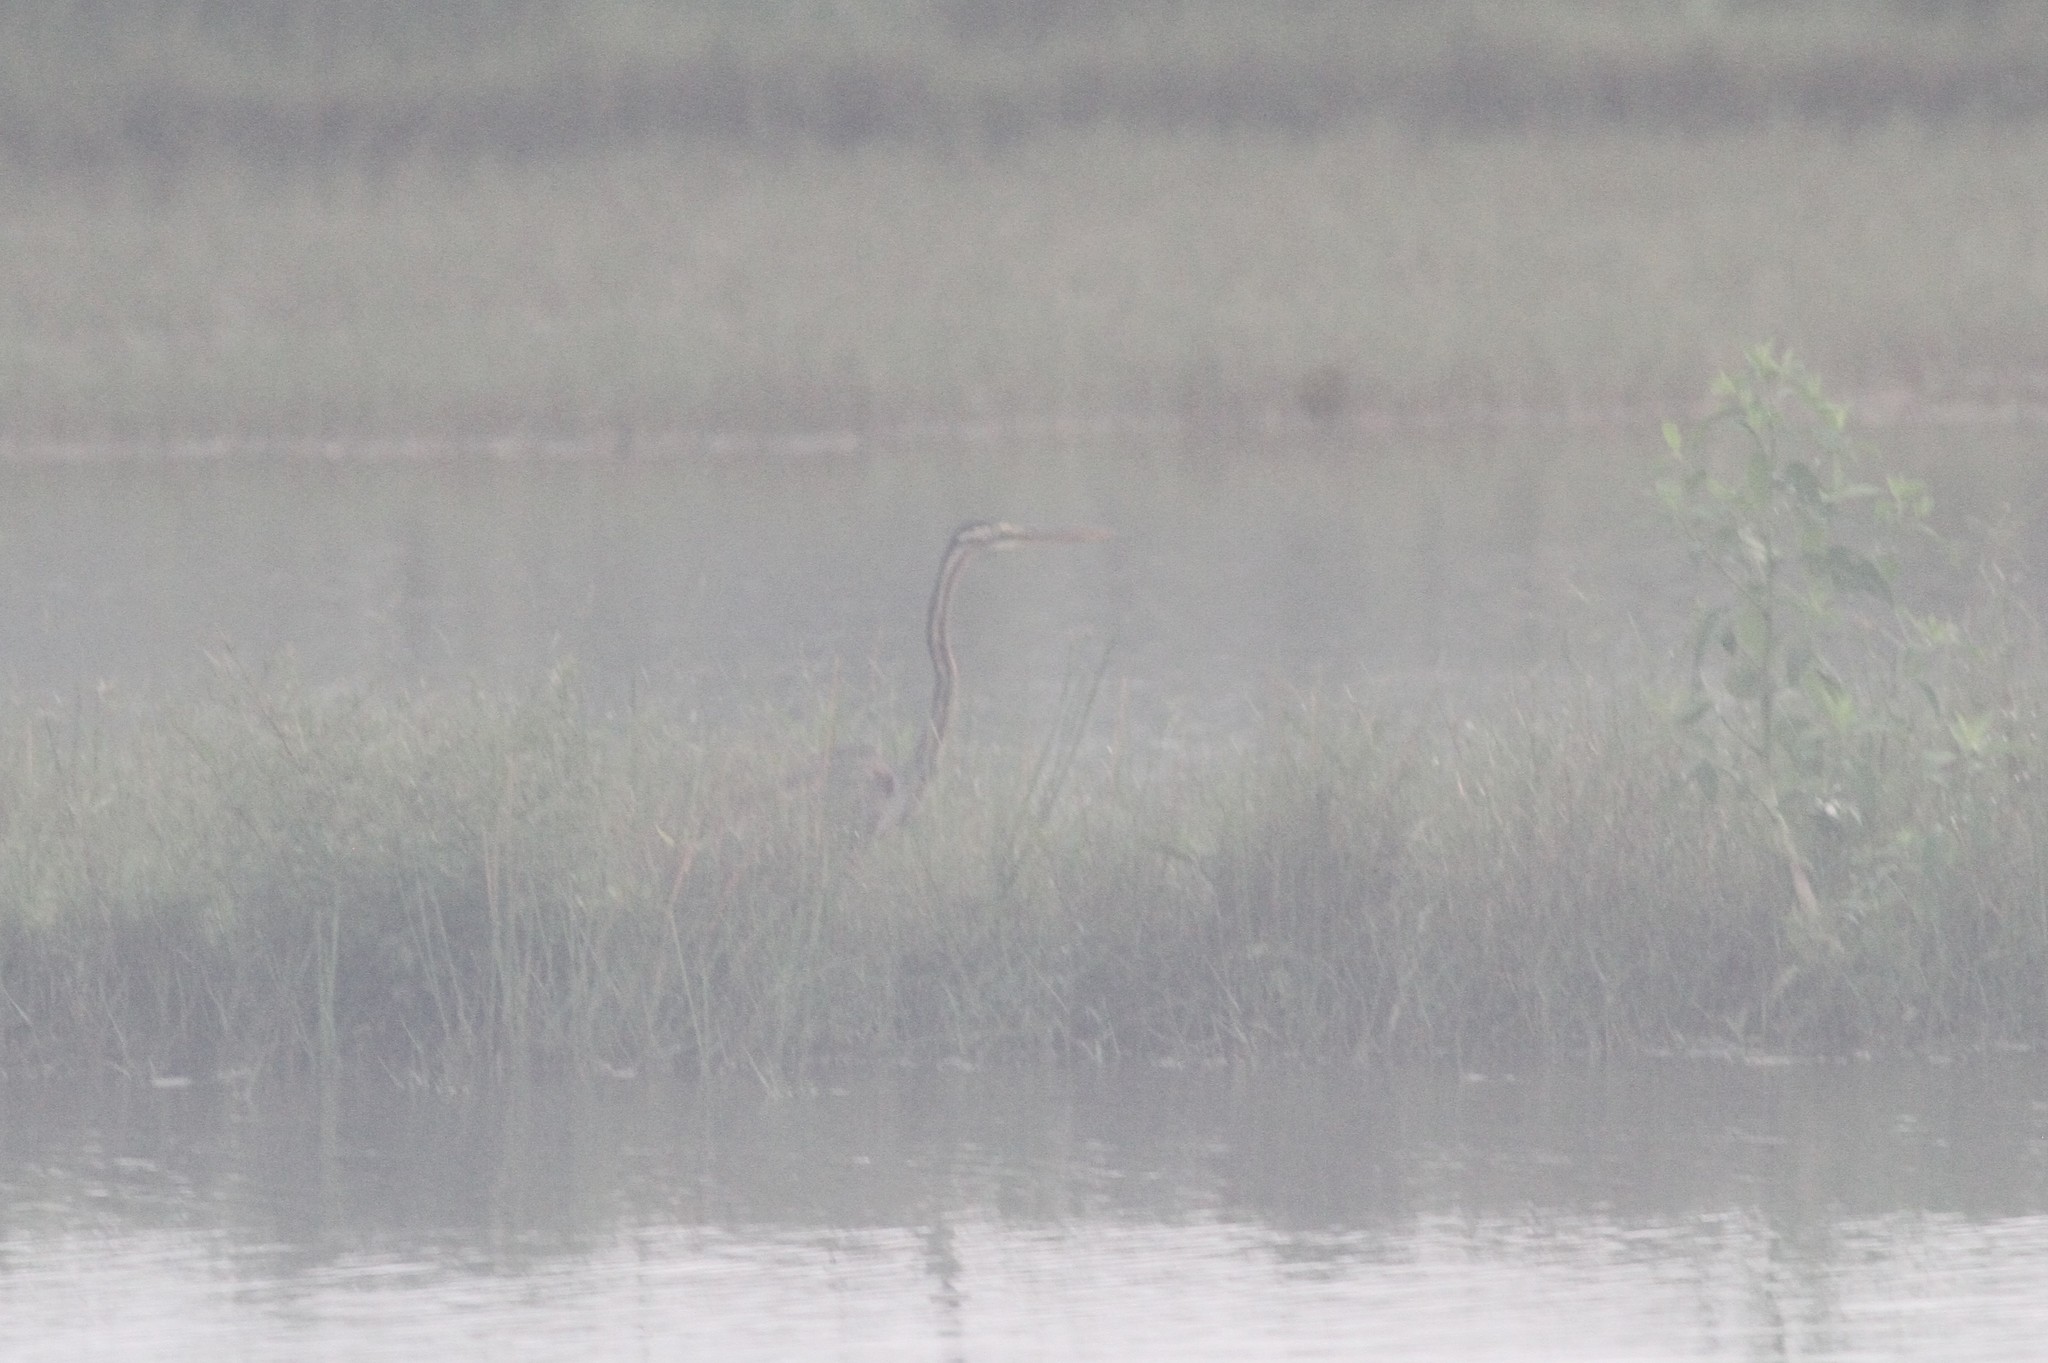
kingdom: Animalia
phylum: Chordata
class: Aves
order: Pelecaniformes
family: Ardeidae
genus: Ardea
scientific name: Ardea purpurea
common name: Purple heron
